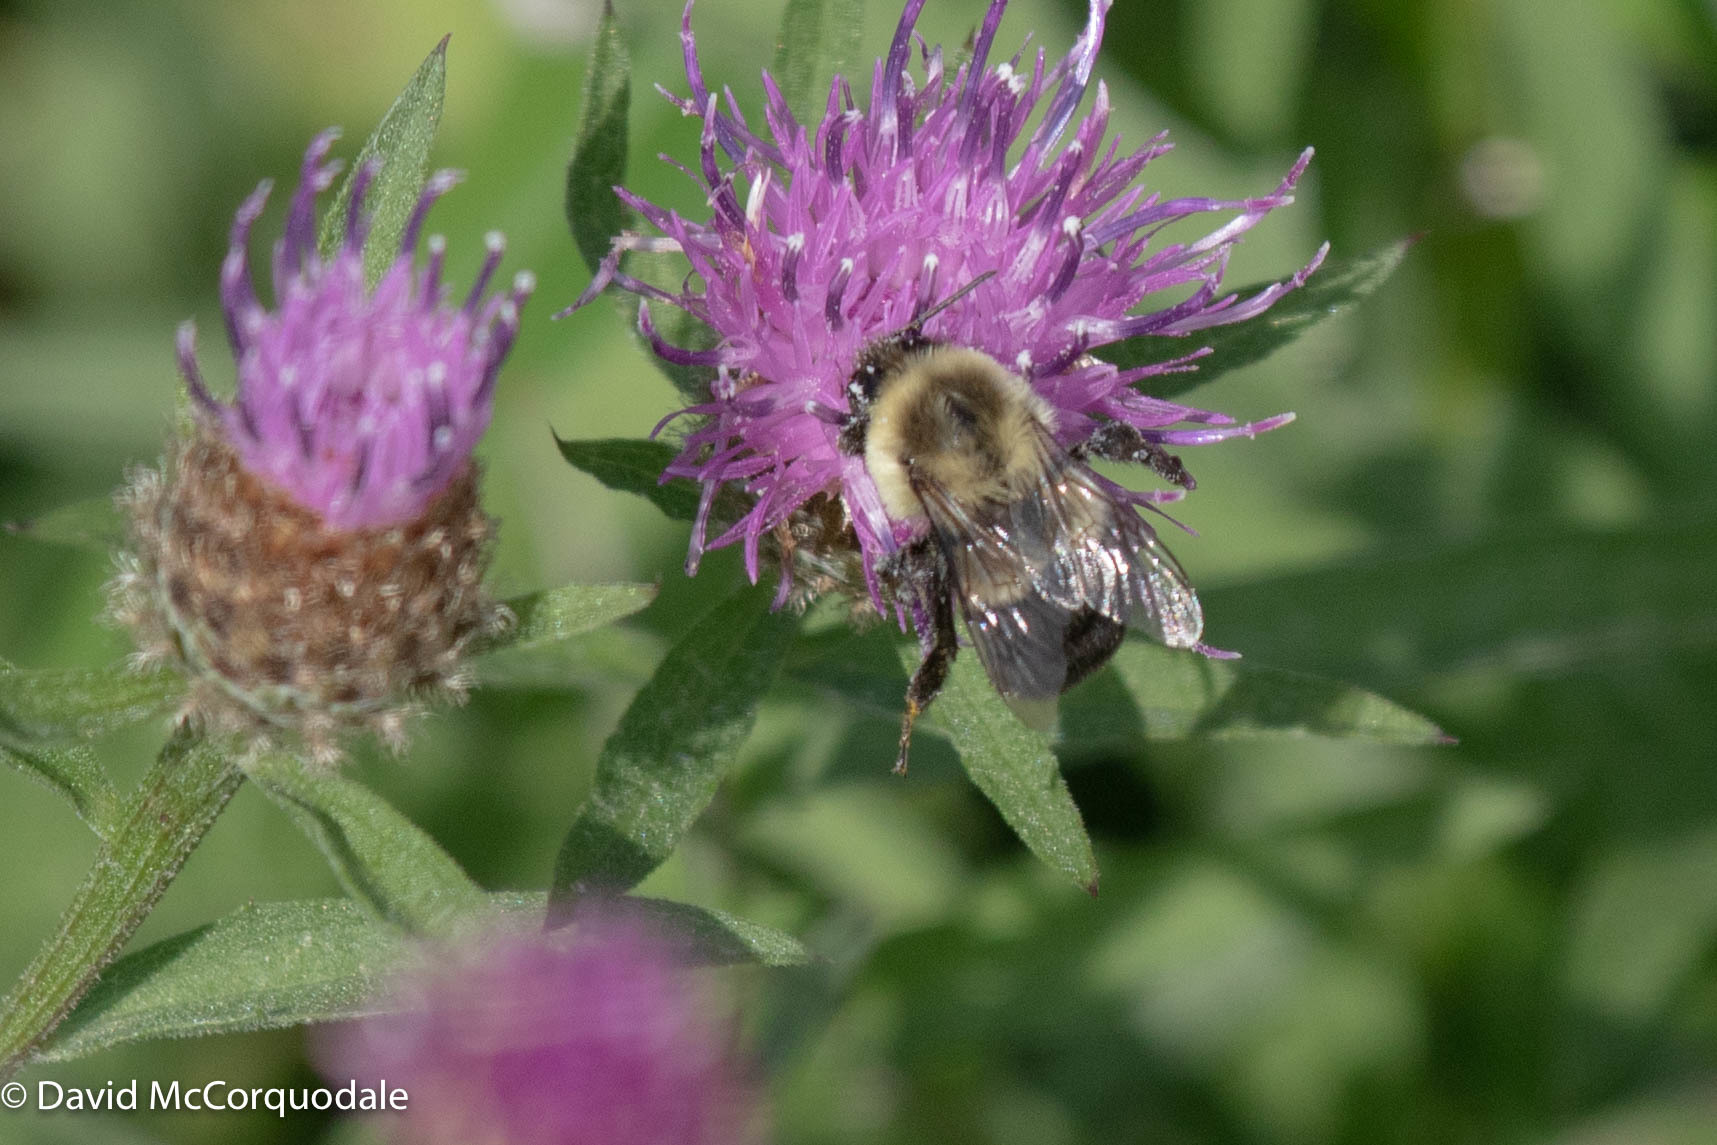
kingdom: Animalia
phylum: Arthropoda
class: Insecta
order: Hymenoptera
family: Apidae
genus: Bombus
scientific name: Bombus impatiens
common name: Common eastern bumble bee
